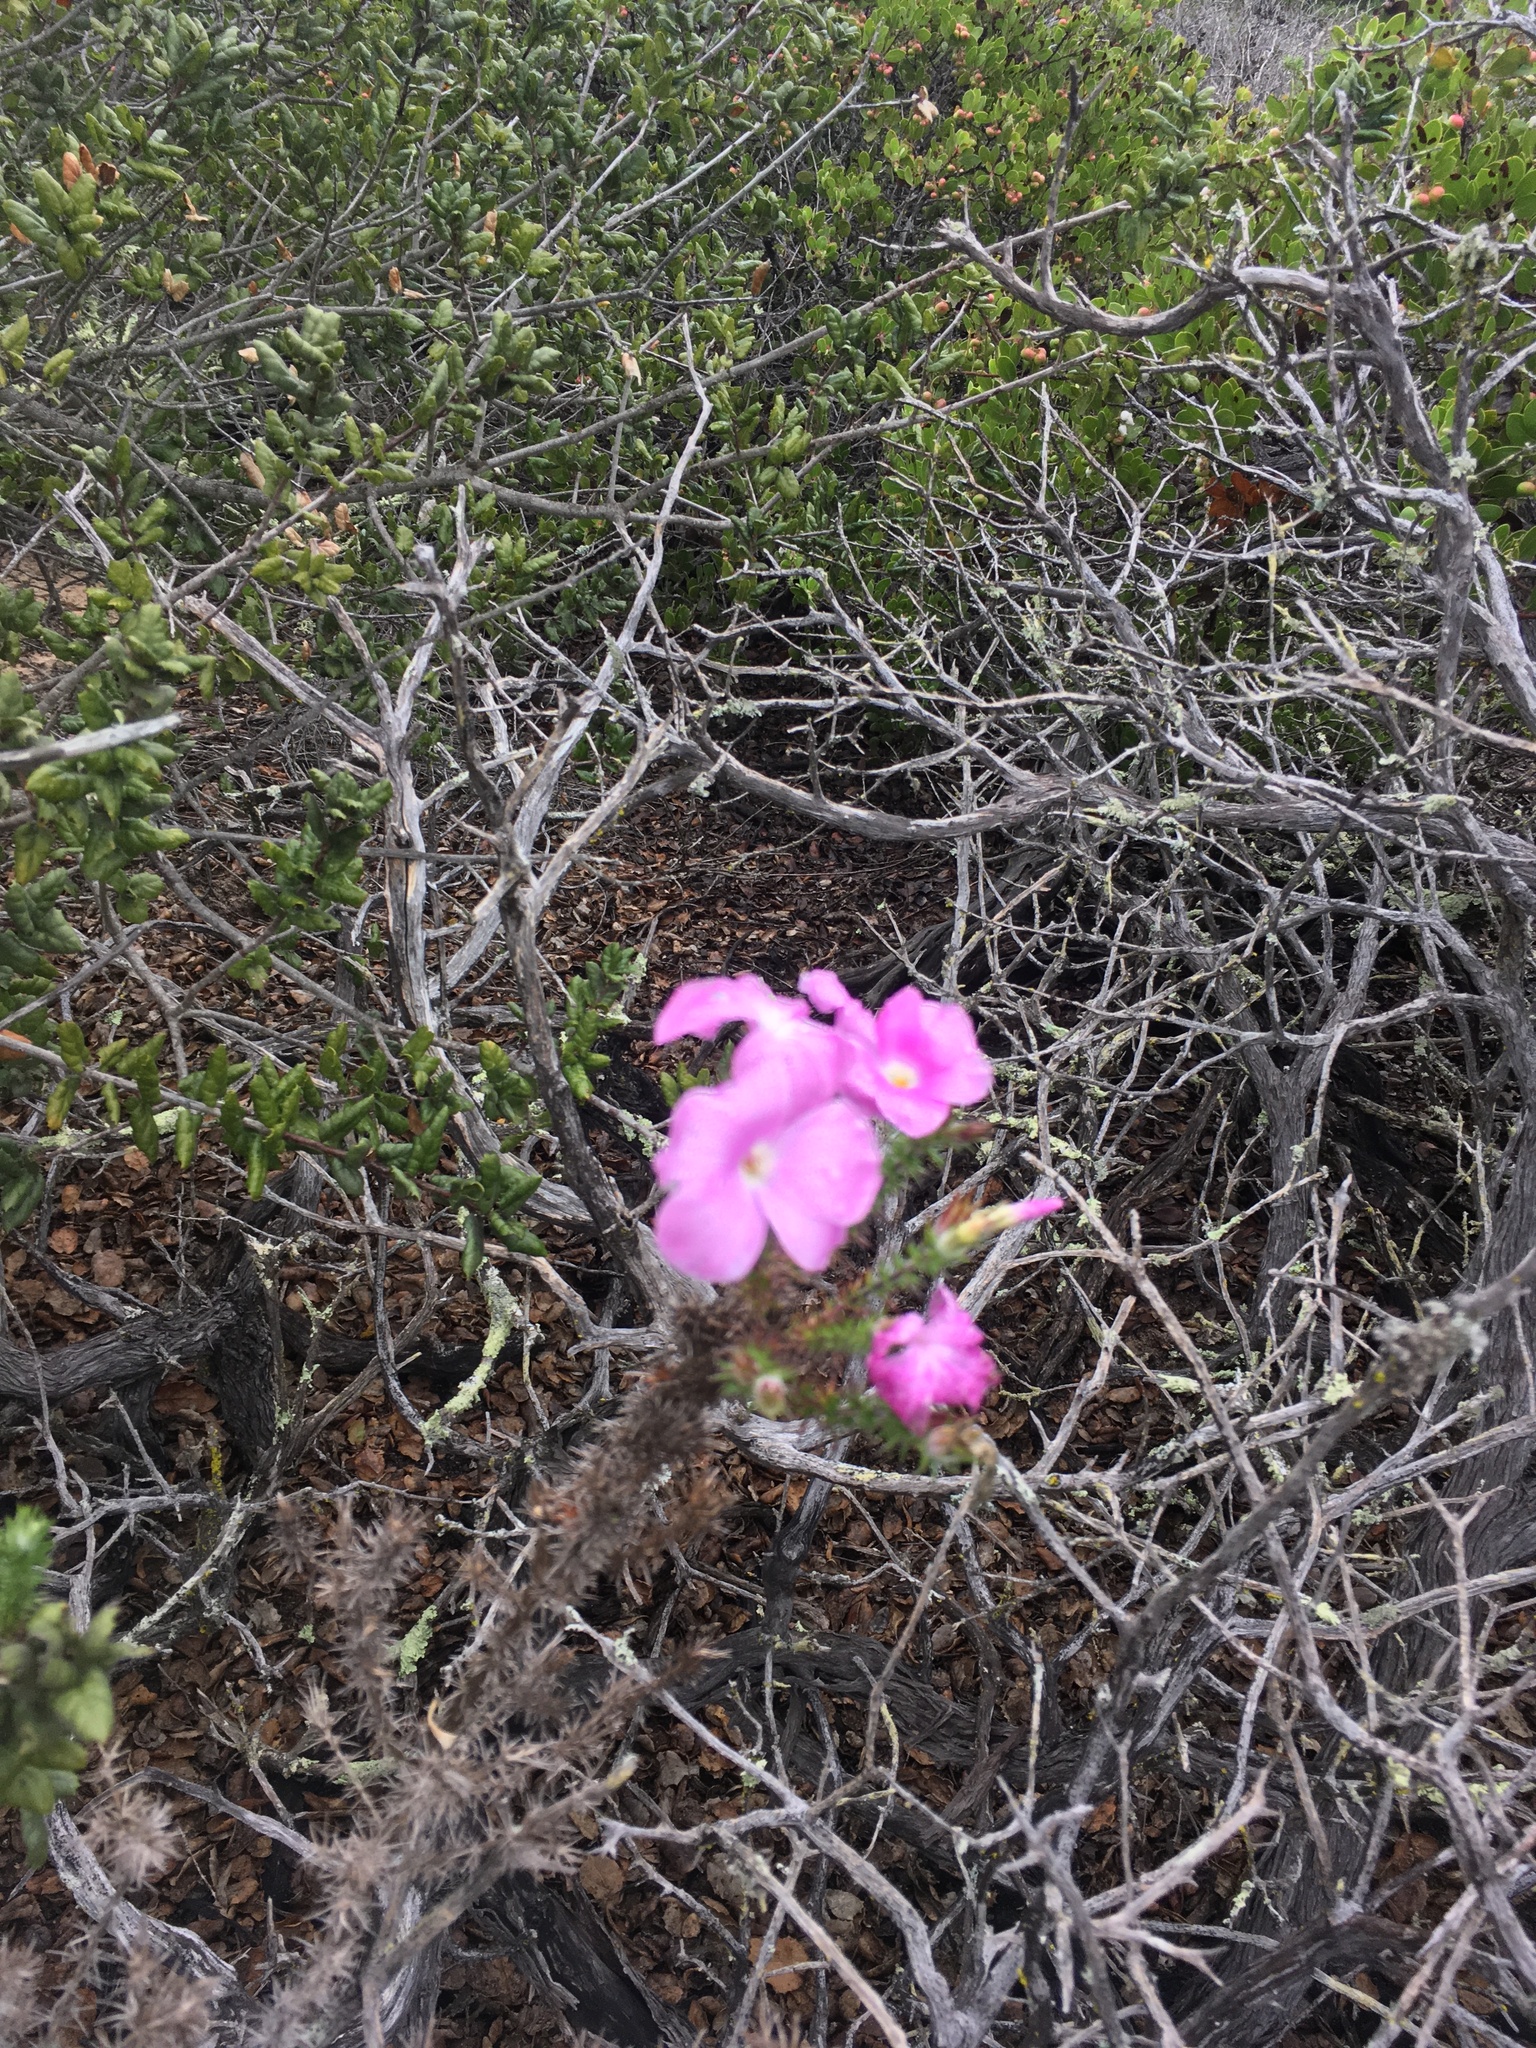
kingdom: Plantae
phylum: Tracheophyta
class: Magnoliopsida
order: Ericales
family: Polemoniaceae
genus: Linanthus
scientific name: Linanthus californicus
